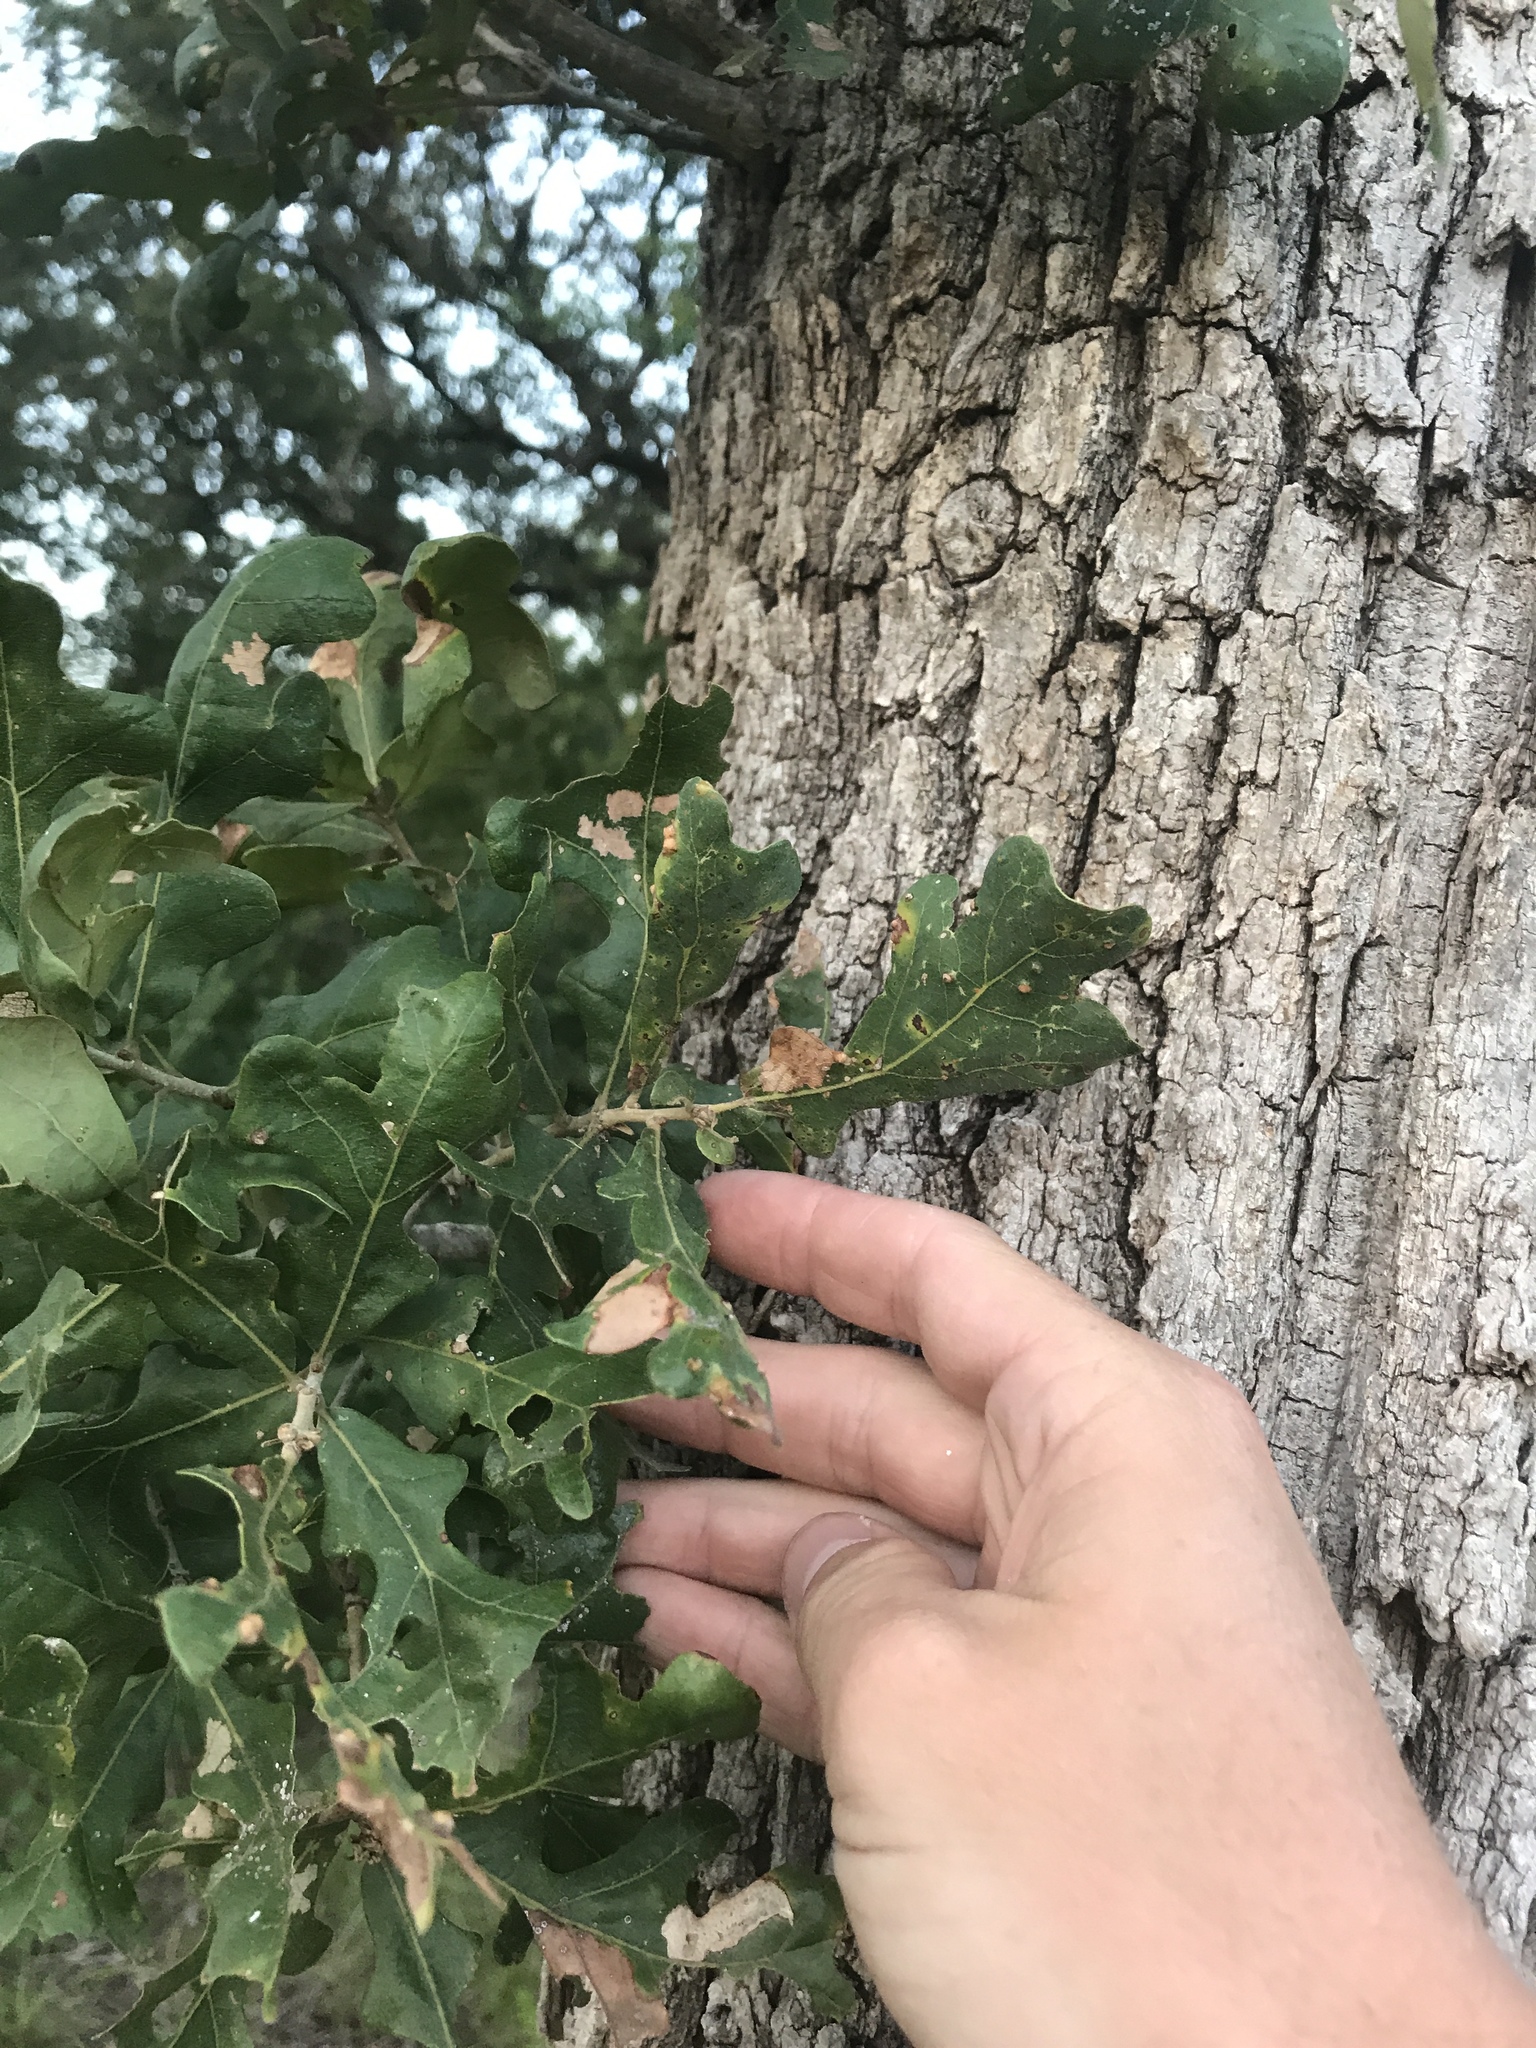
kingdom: Plantae
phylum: Tracheophyta
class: Magnoliopsida
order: Fagales
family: Fagaceae
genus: Quercus
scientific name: Quercus stellata
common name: Post oak
